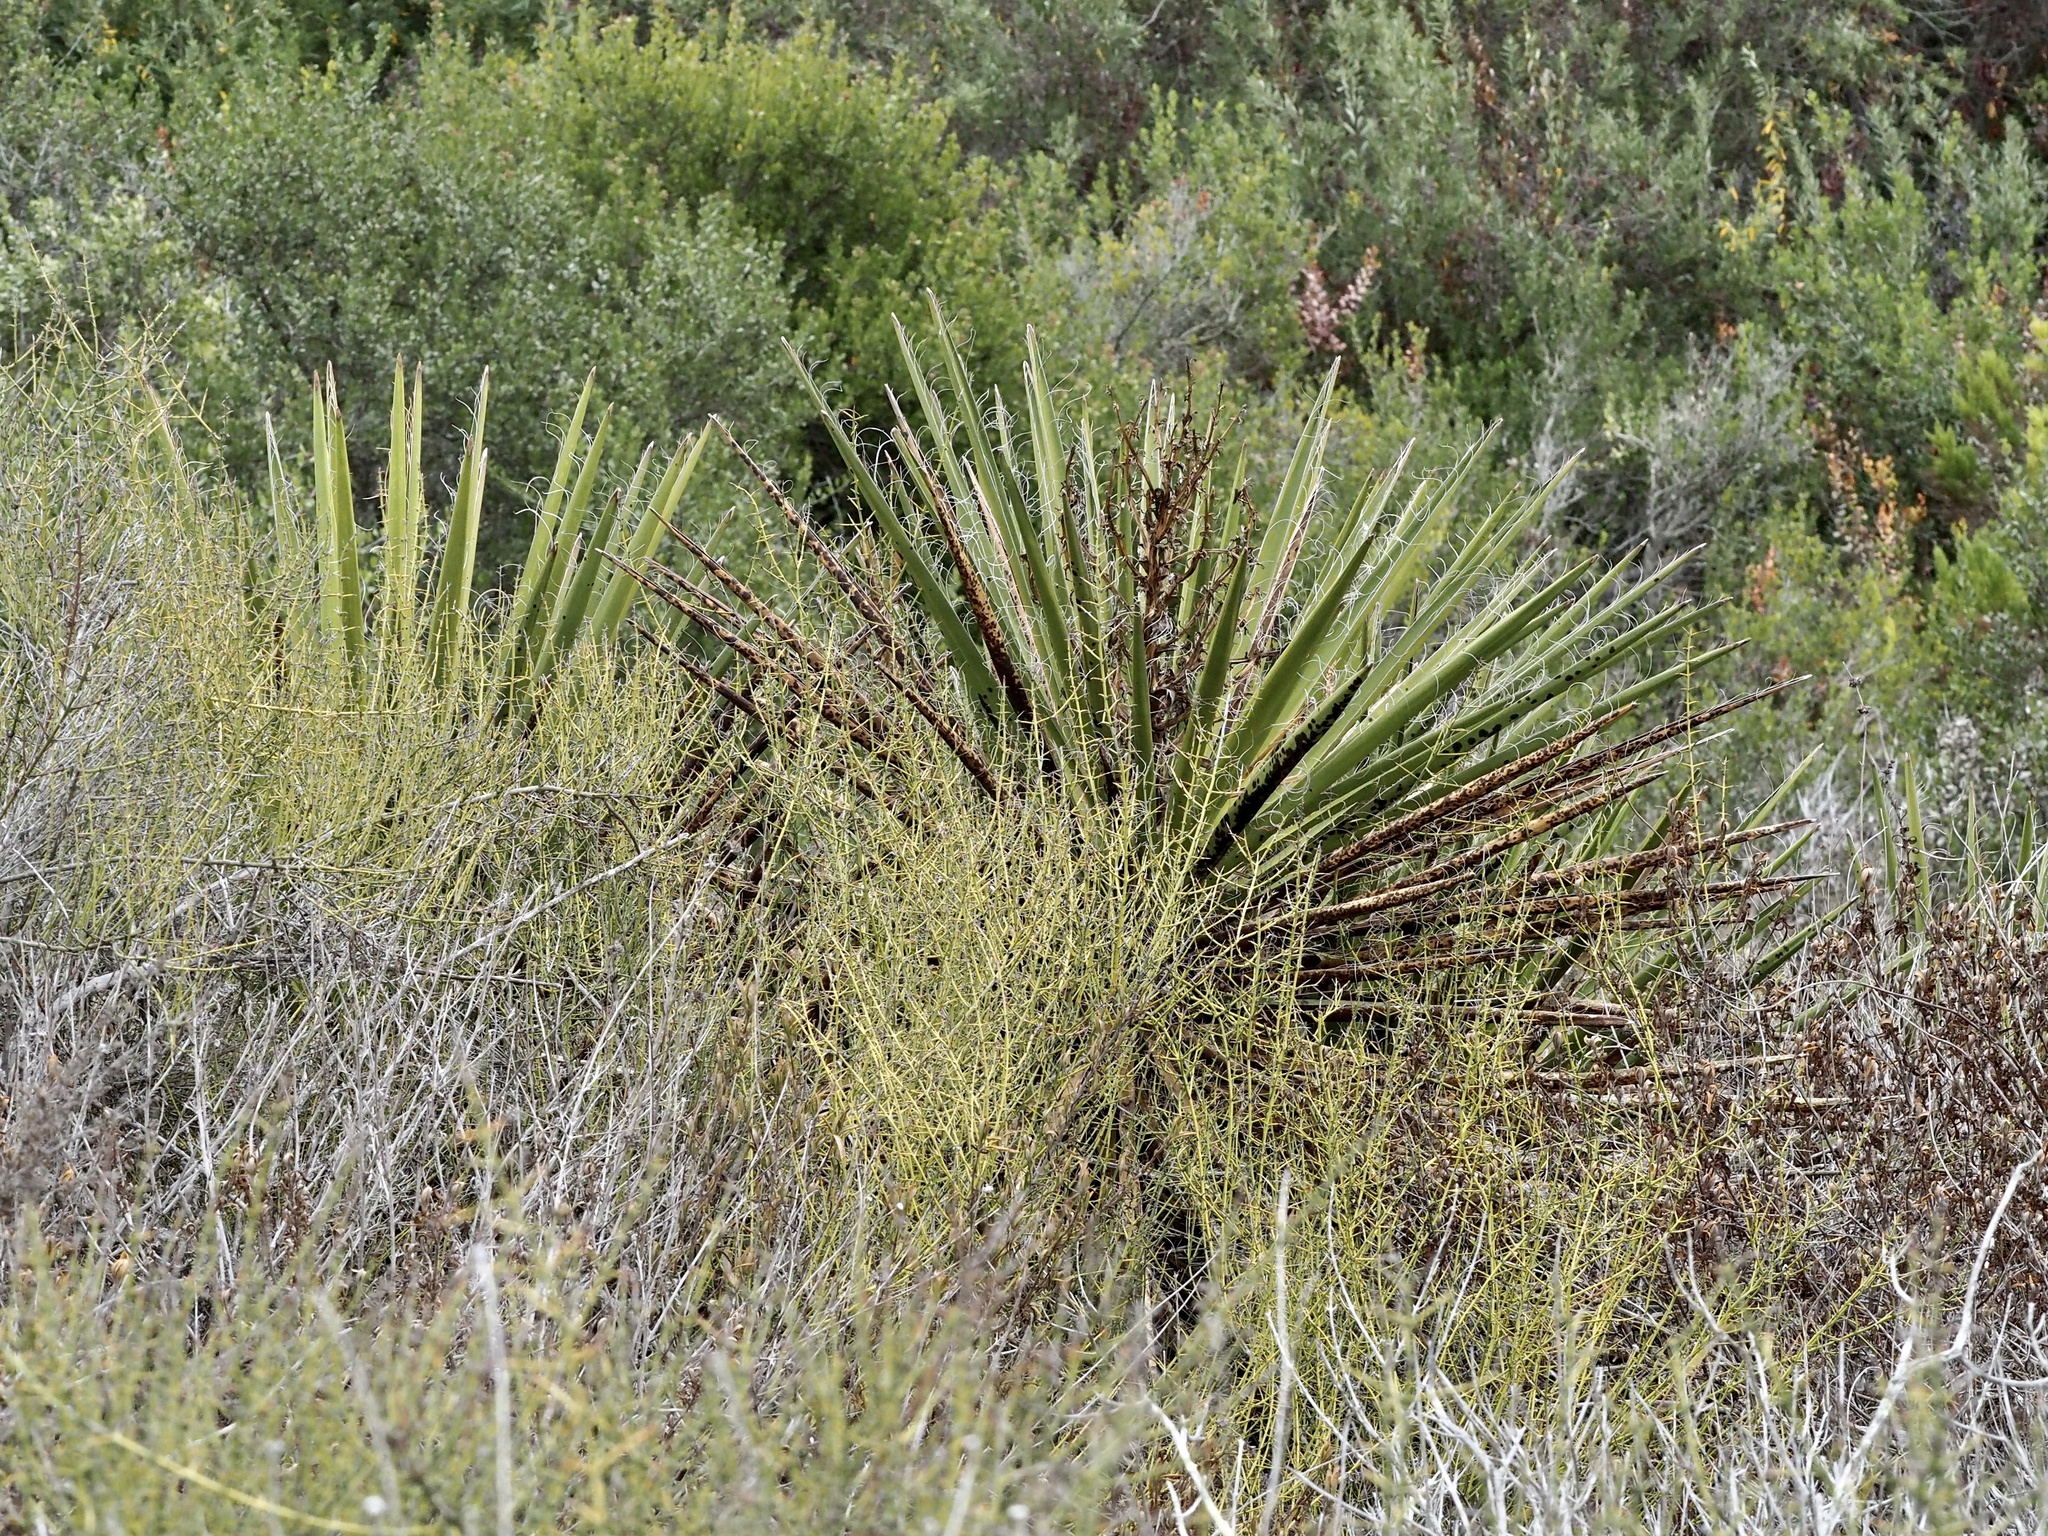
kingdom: Plantae
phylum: Tracheophyta
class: Liliopsida
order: Asparagales
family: Asparagaceae
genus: Yucca
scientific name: Yucca schidigera
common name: Mojave yucca
